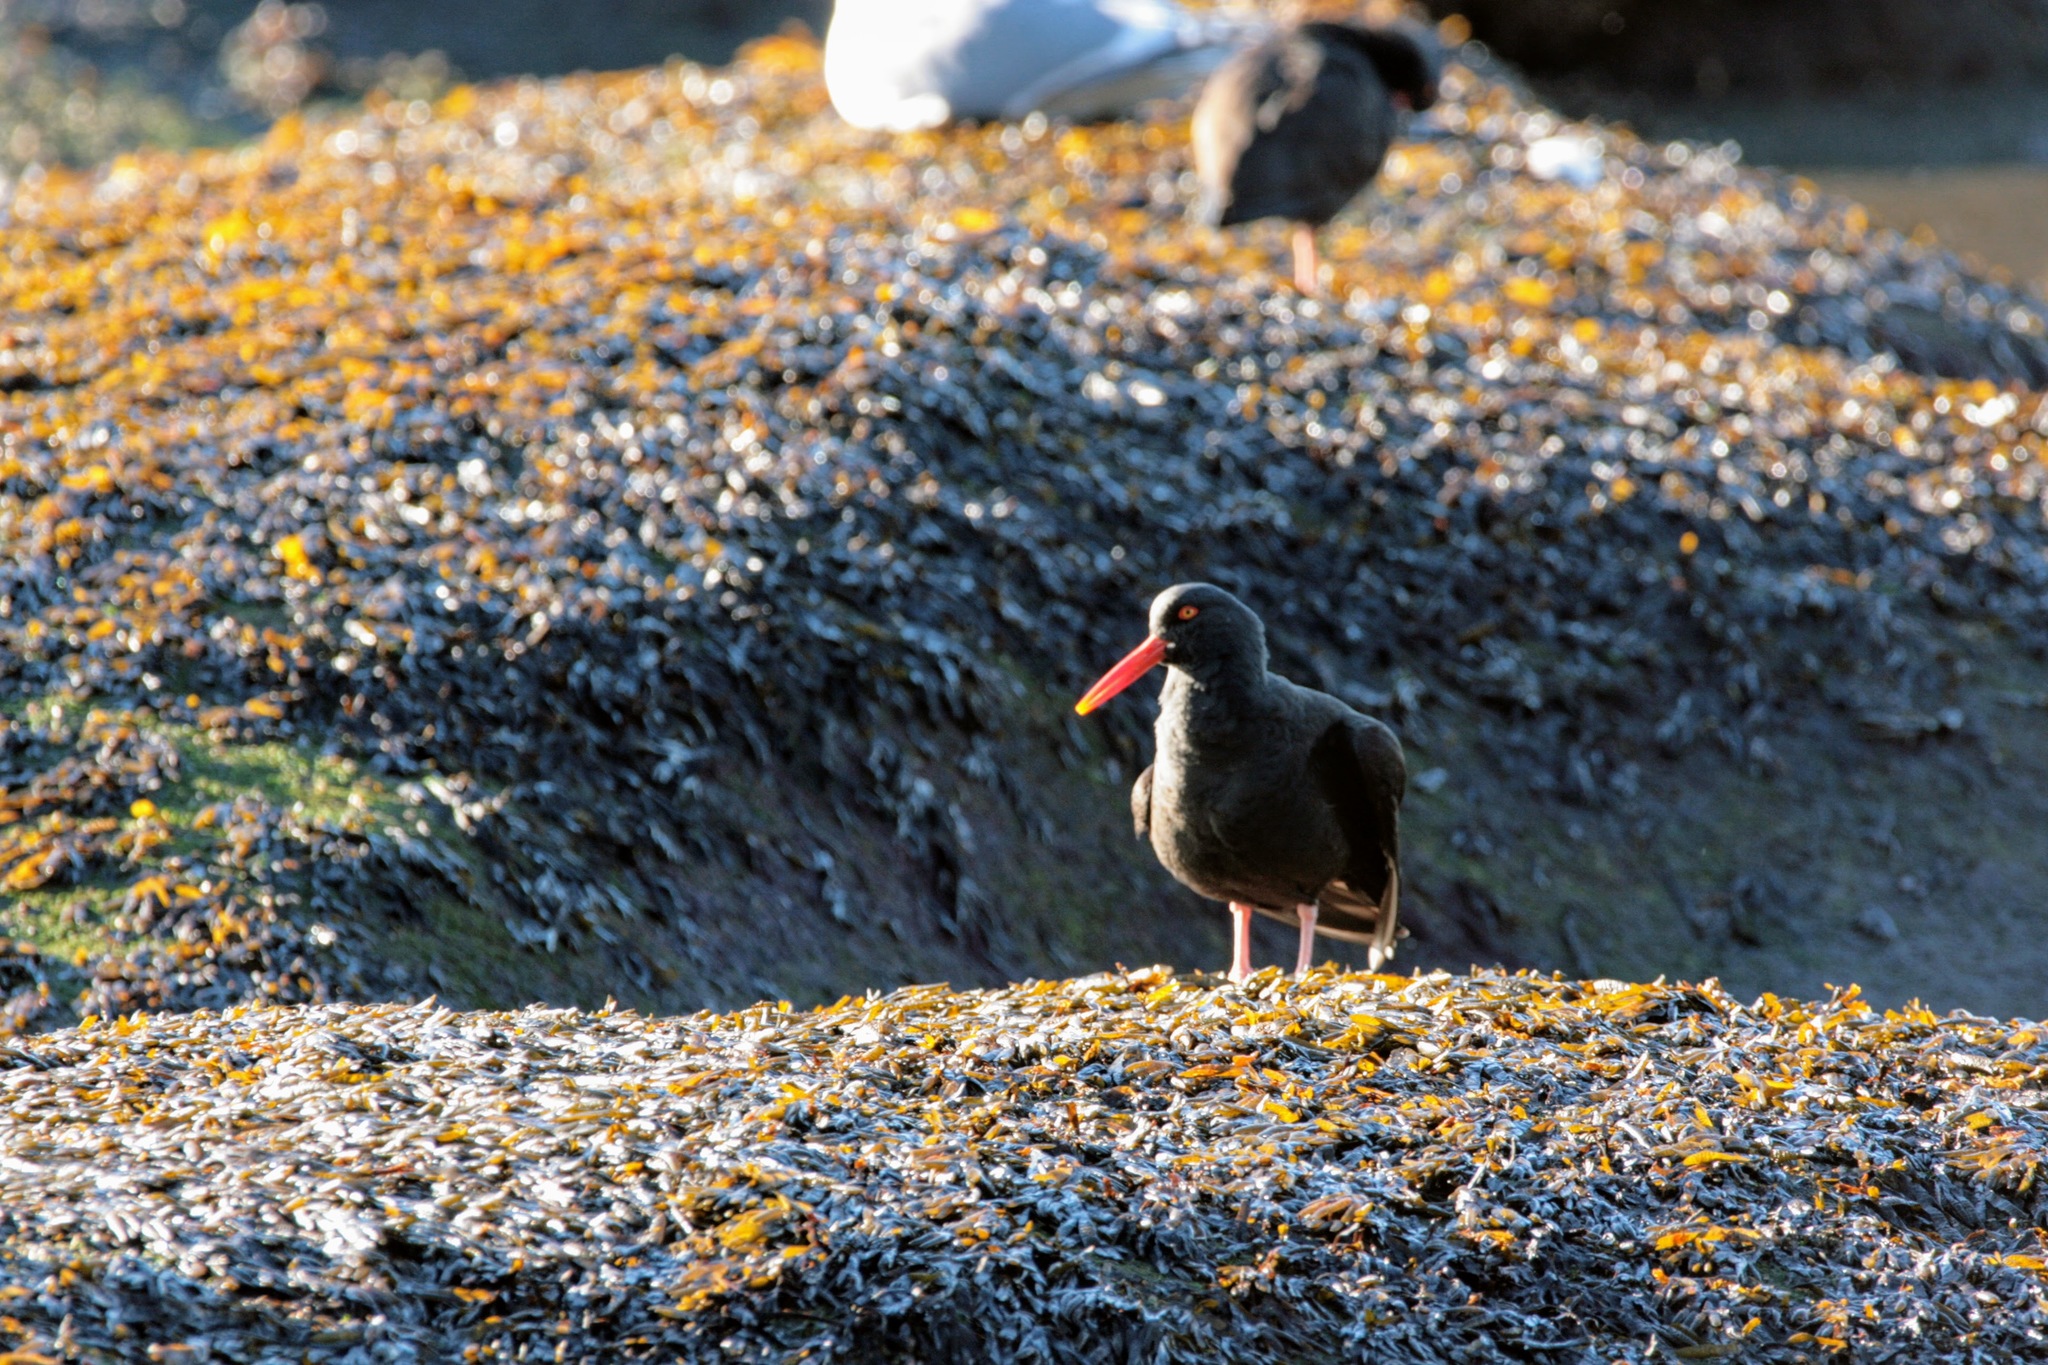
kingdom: Animalia
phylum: Chordata
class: Aves
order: Charadriiformes
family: Haematopodidae
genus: Haematopus
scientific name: Haematopus bachmani
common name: Black oystercatcher
